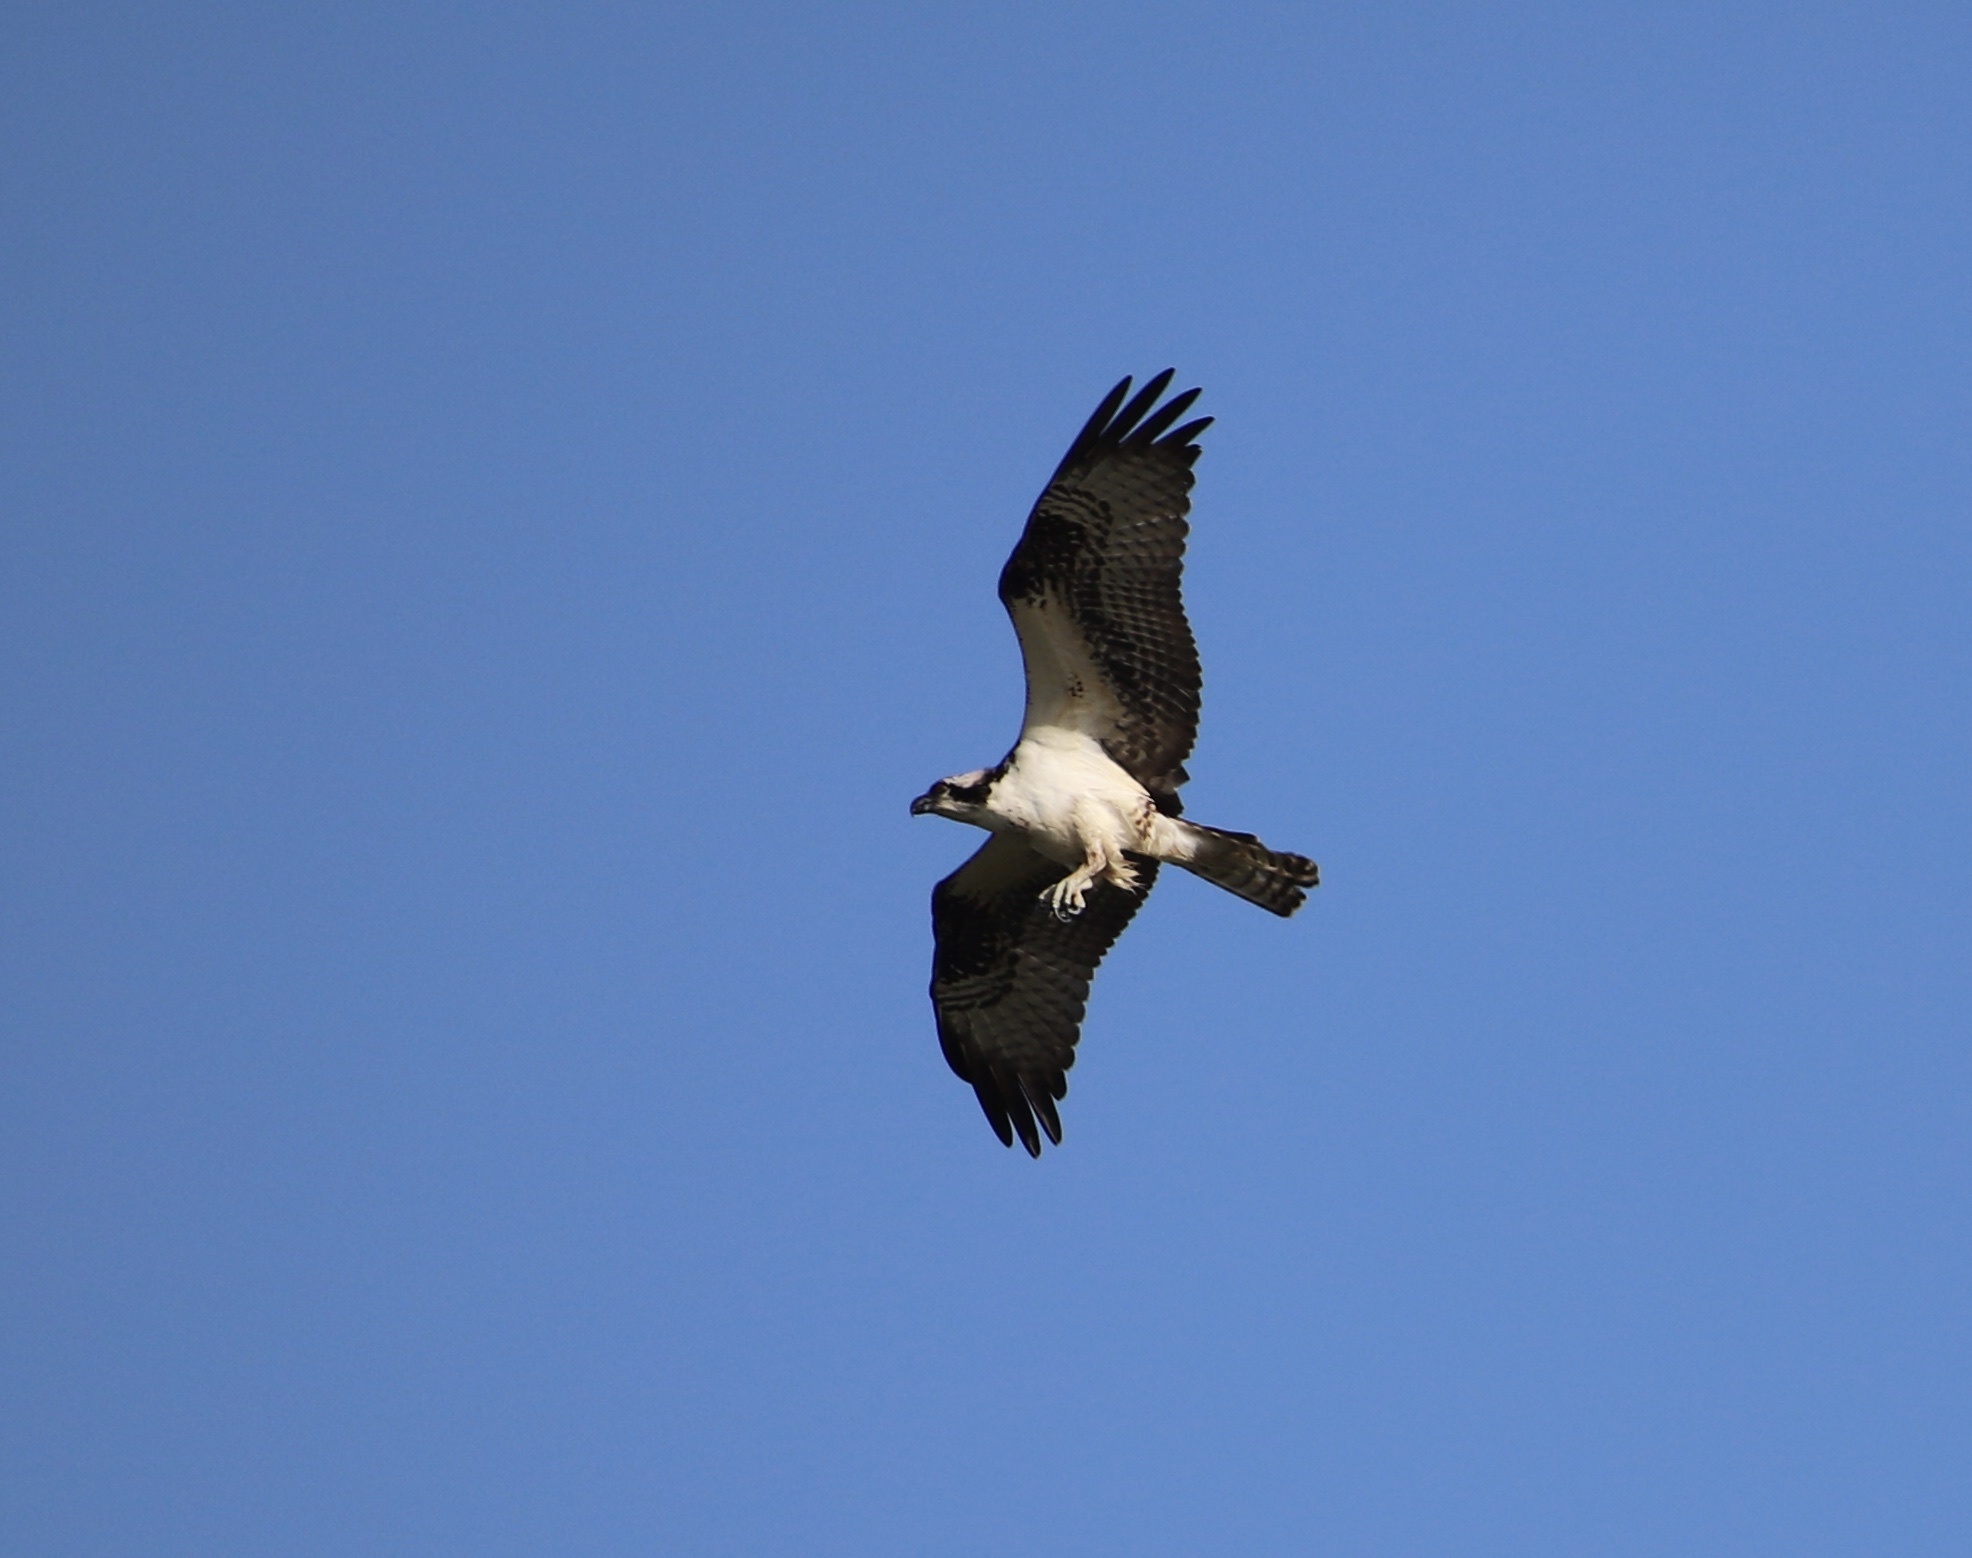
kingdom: Animalia
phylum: Chordata
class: Aves
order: Accipitriformes
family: Pandionidae
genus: Pandion
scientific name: Pandion haliaetus
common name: Osprey
